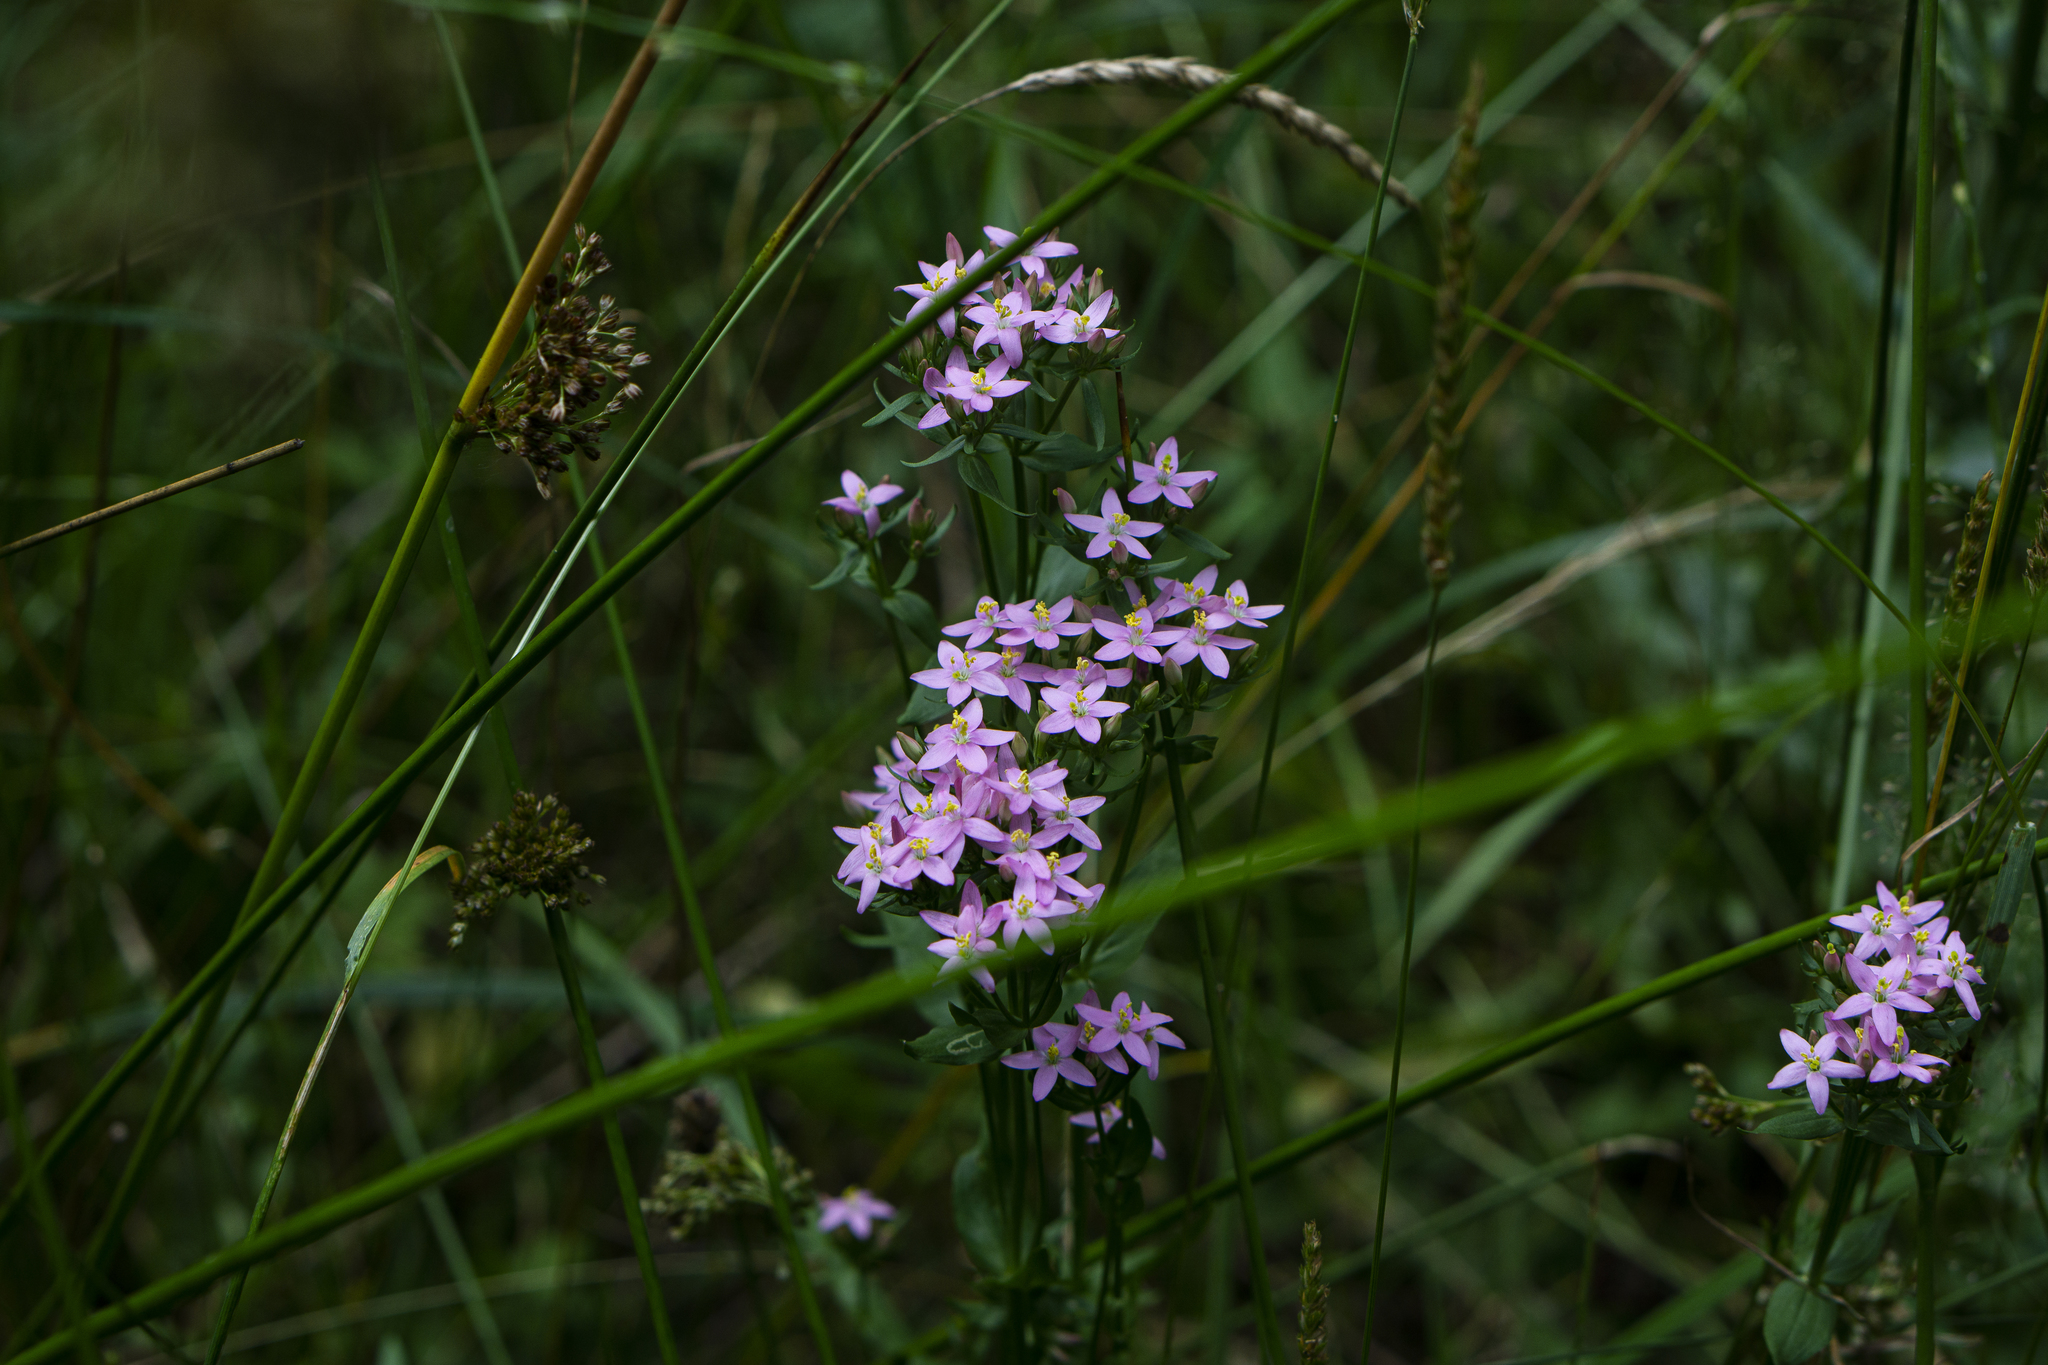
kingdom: Plantae
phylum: Tracheophyta
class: Magnoliopsida
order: Gentianales
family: Gentianaceae
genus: Centaurium
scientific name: Centaurium erythraea
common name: Common centaury
